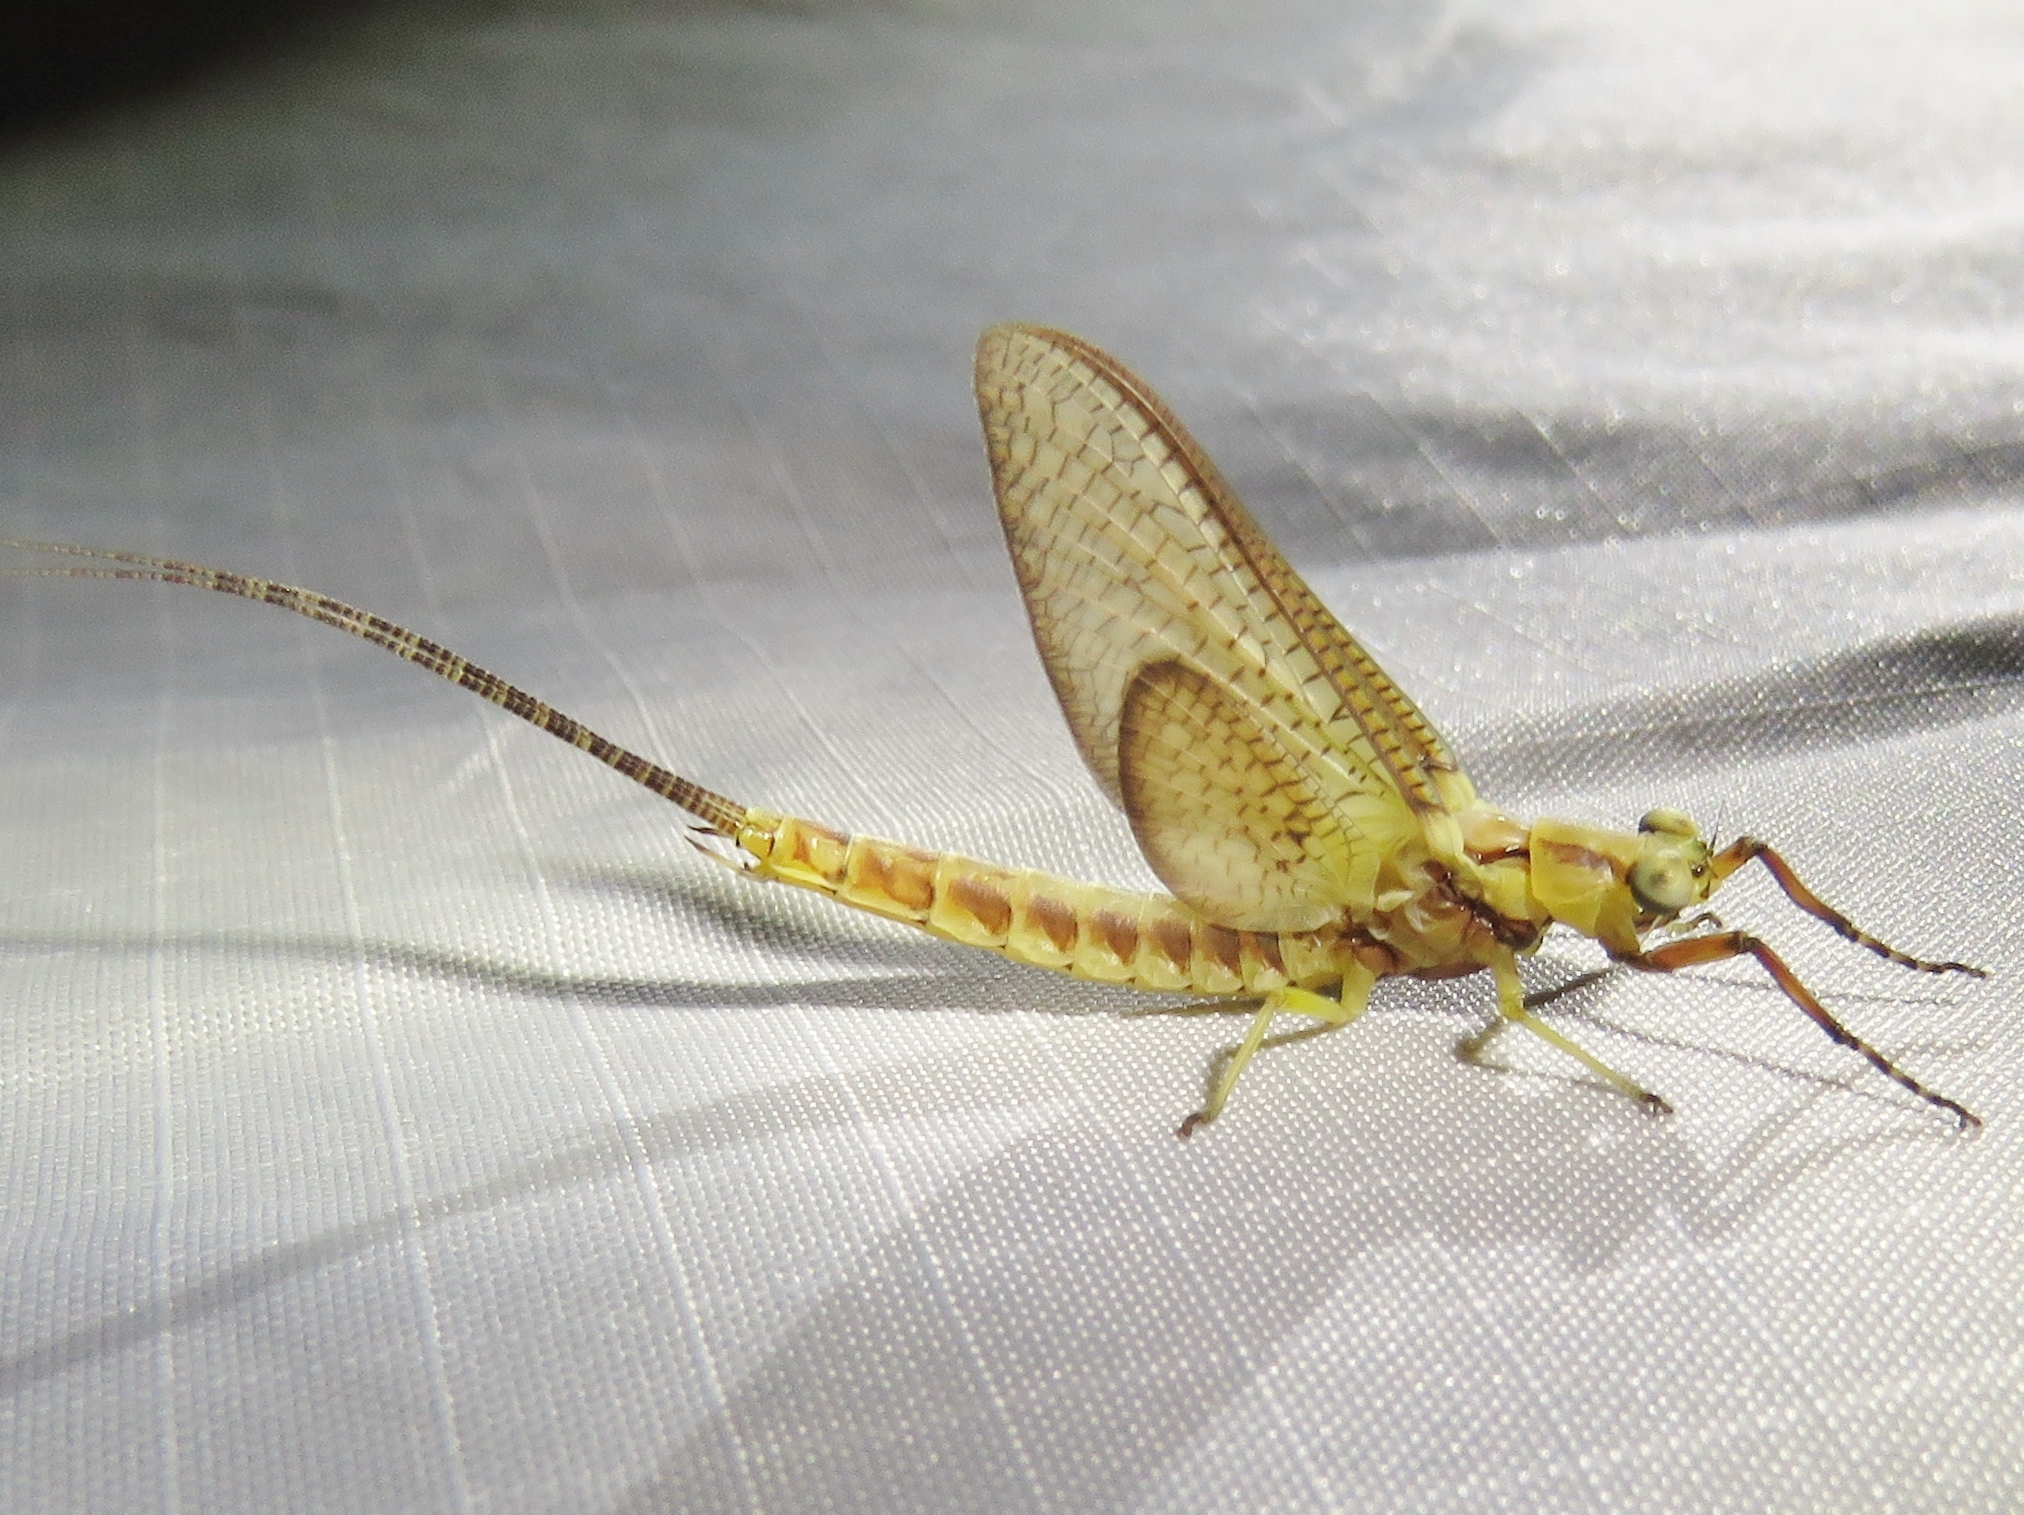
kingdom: Animalia
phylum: Arthropoda
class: Insecta
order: Ephemeroptera
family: Ephemeridae
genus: Hexagenia
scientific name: Hexagenia limbata
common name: Giant mayfly
